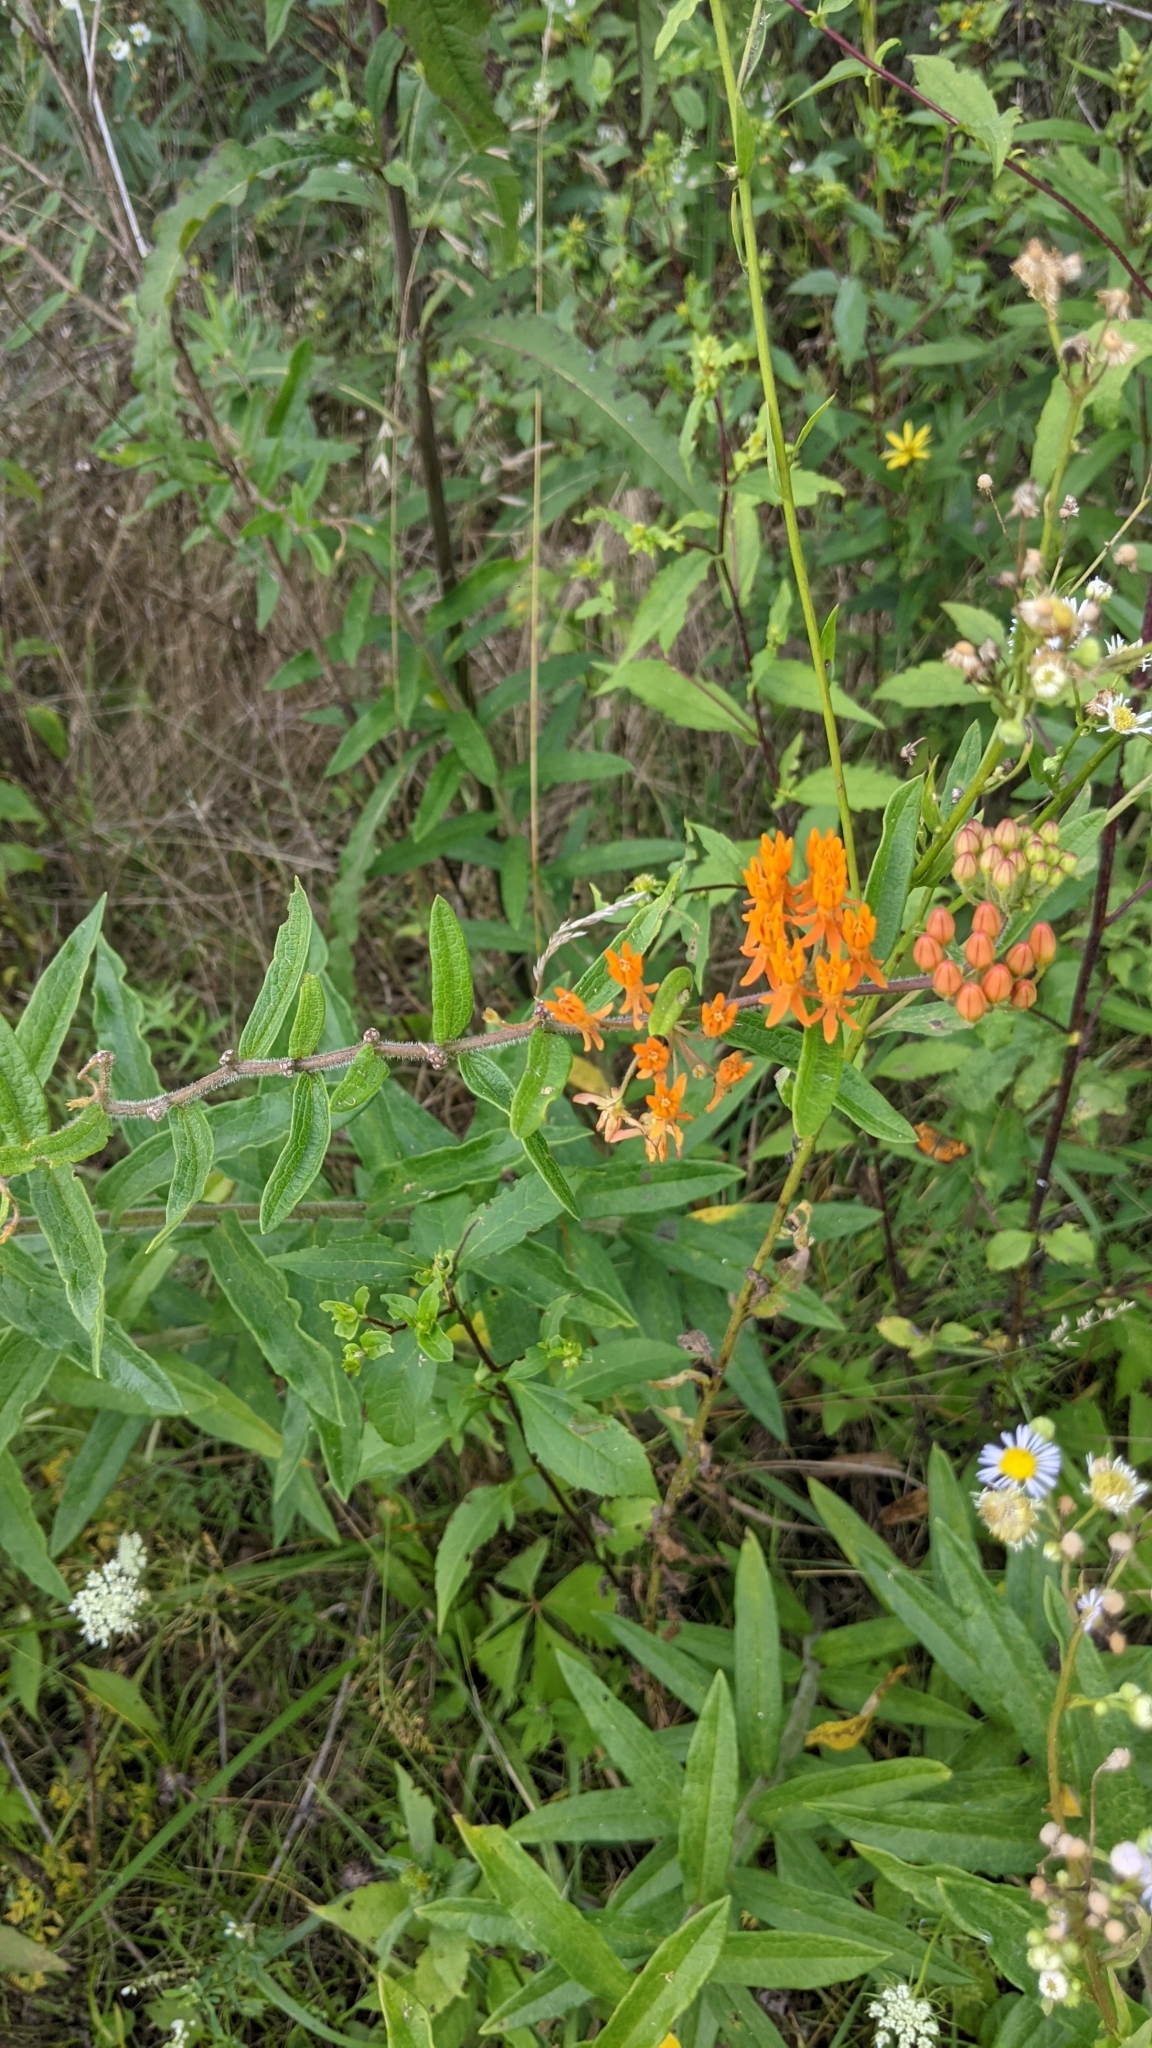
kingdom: Plantae
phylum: Tracheophyta
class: Magnoliopsida
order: Gentianales
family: Apocynaceae
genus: Asclepias
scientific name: Asclepias tuberosa
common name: Butterfly milkweed
